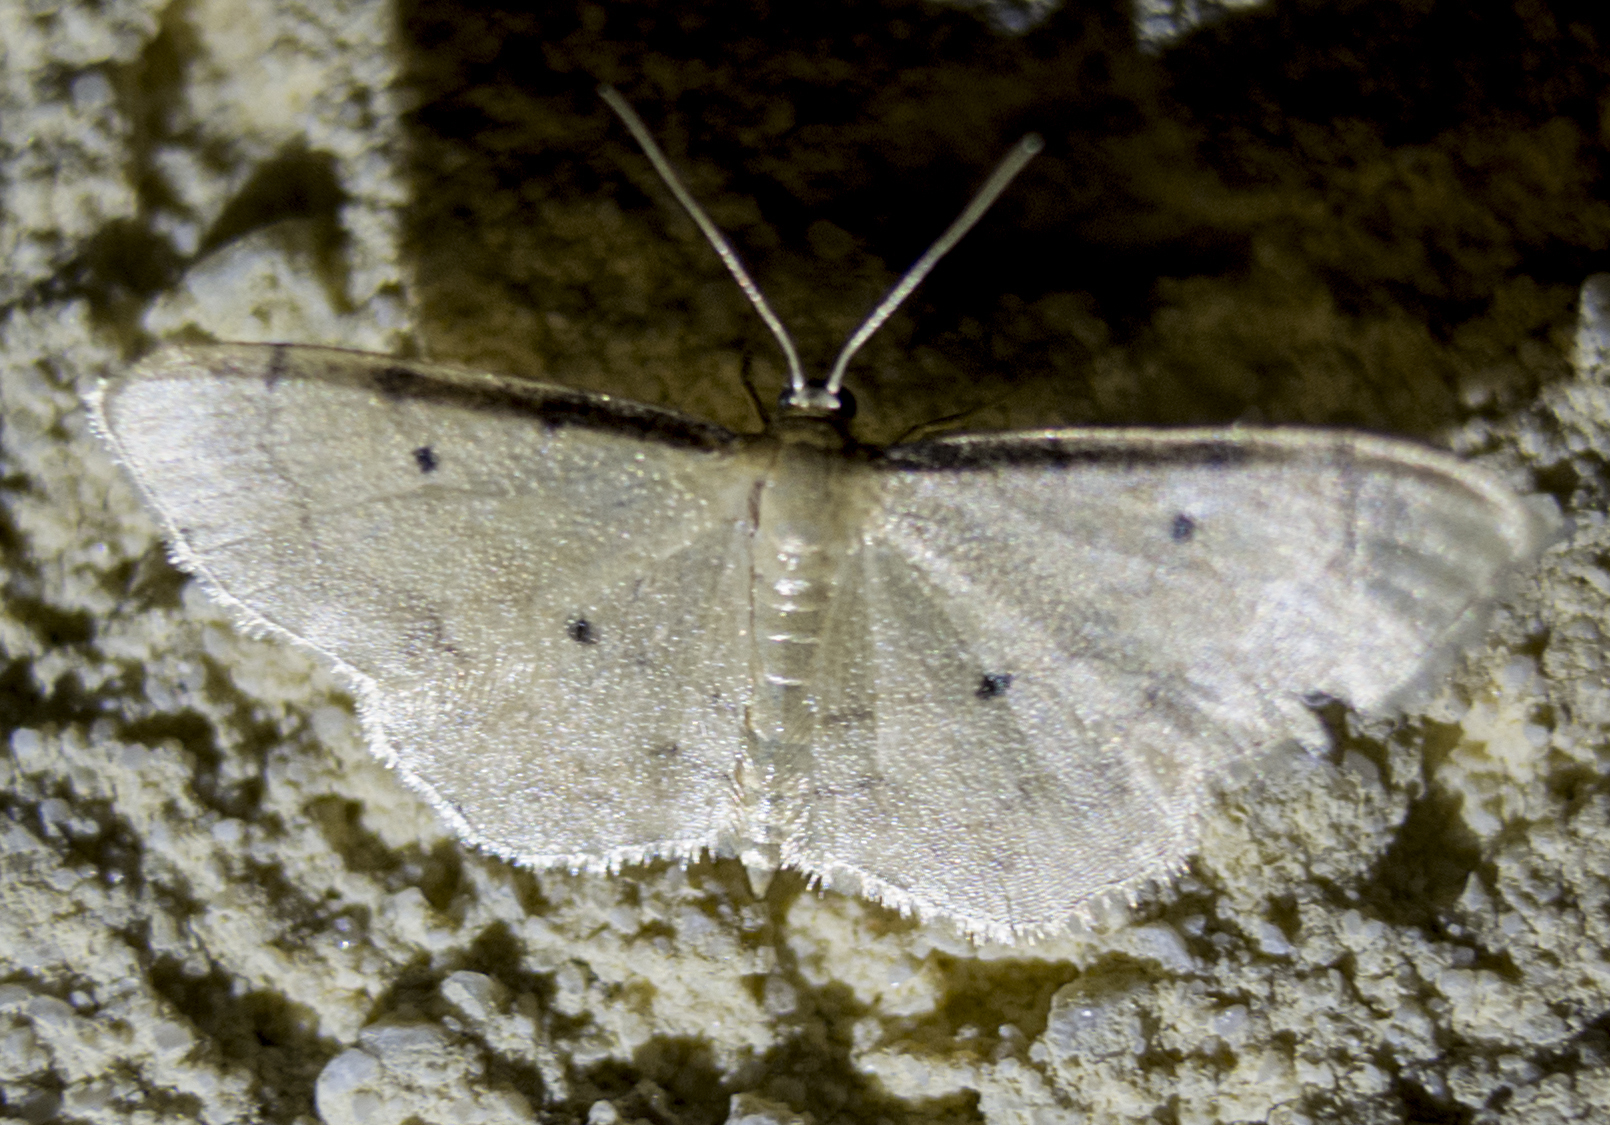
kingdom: Animalia
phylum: Arthropoda
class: Insecta
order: Lepidoptera
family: Geometridae
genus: Idaea
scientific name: Idaea politaria
